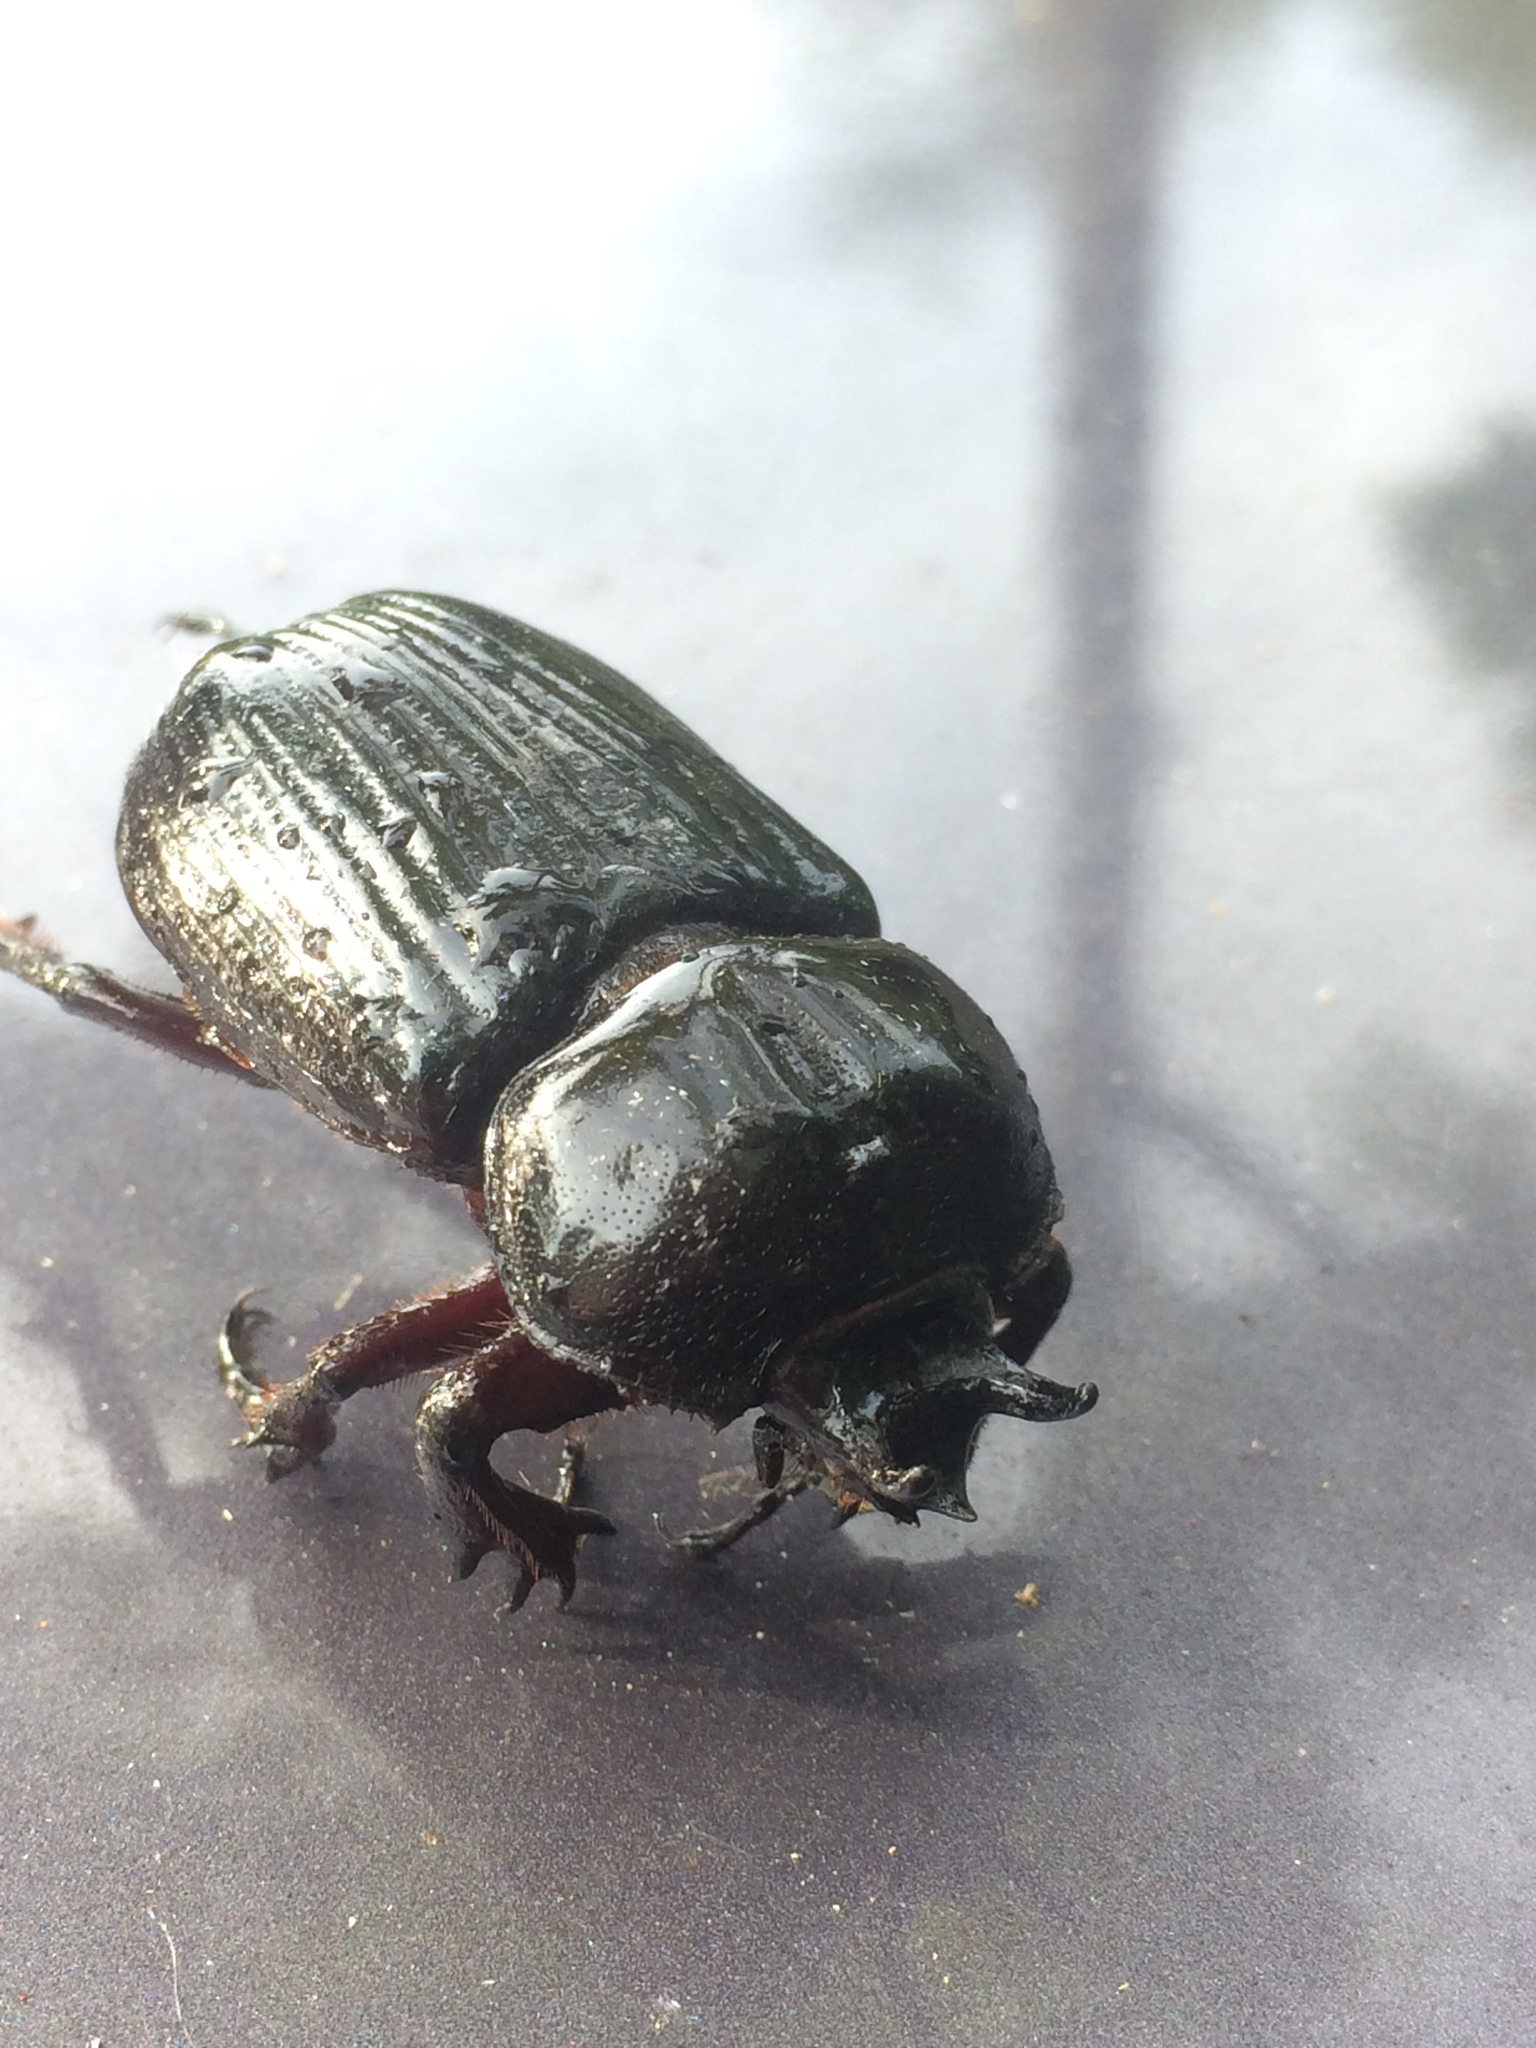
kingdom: Animalia
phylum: Arthropoda
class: Insecta
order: Coleoptera
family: Scarabaeidae
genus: Phileurus
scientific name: Phileurus truncatus
